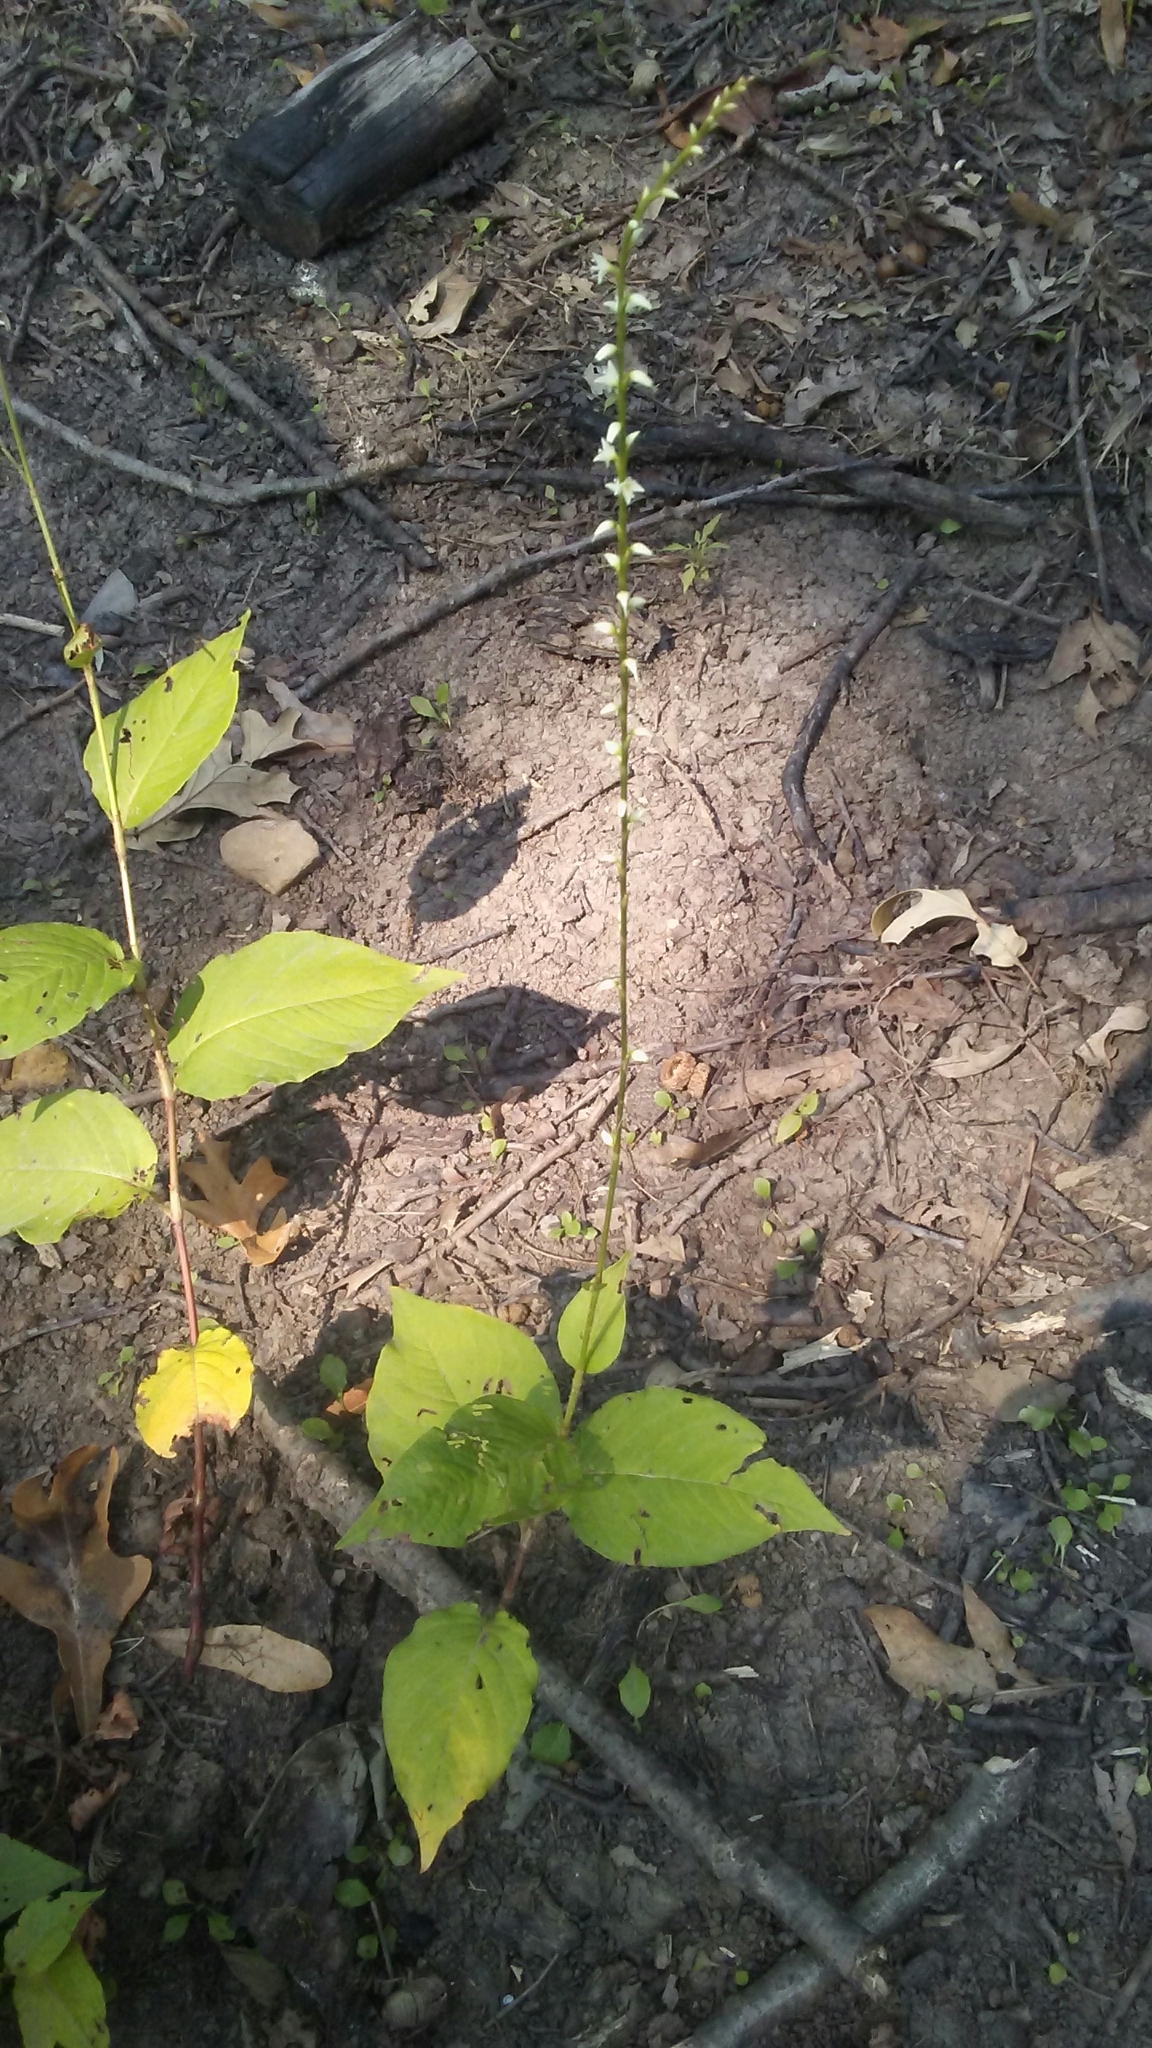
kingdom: Plantae
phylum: Tracheophyta
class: Magnoliopsida
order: Caryophyllales
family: Polygonaceae
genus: Persicaria
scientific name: Persicaria virginiana
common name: Jumpseed
